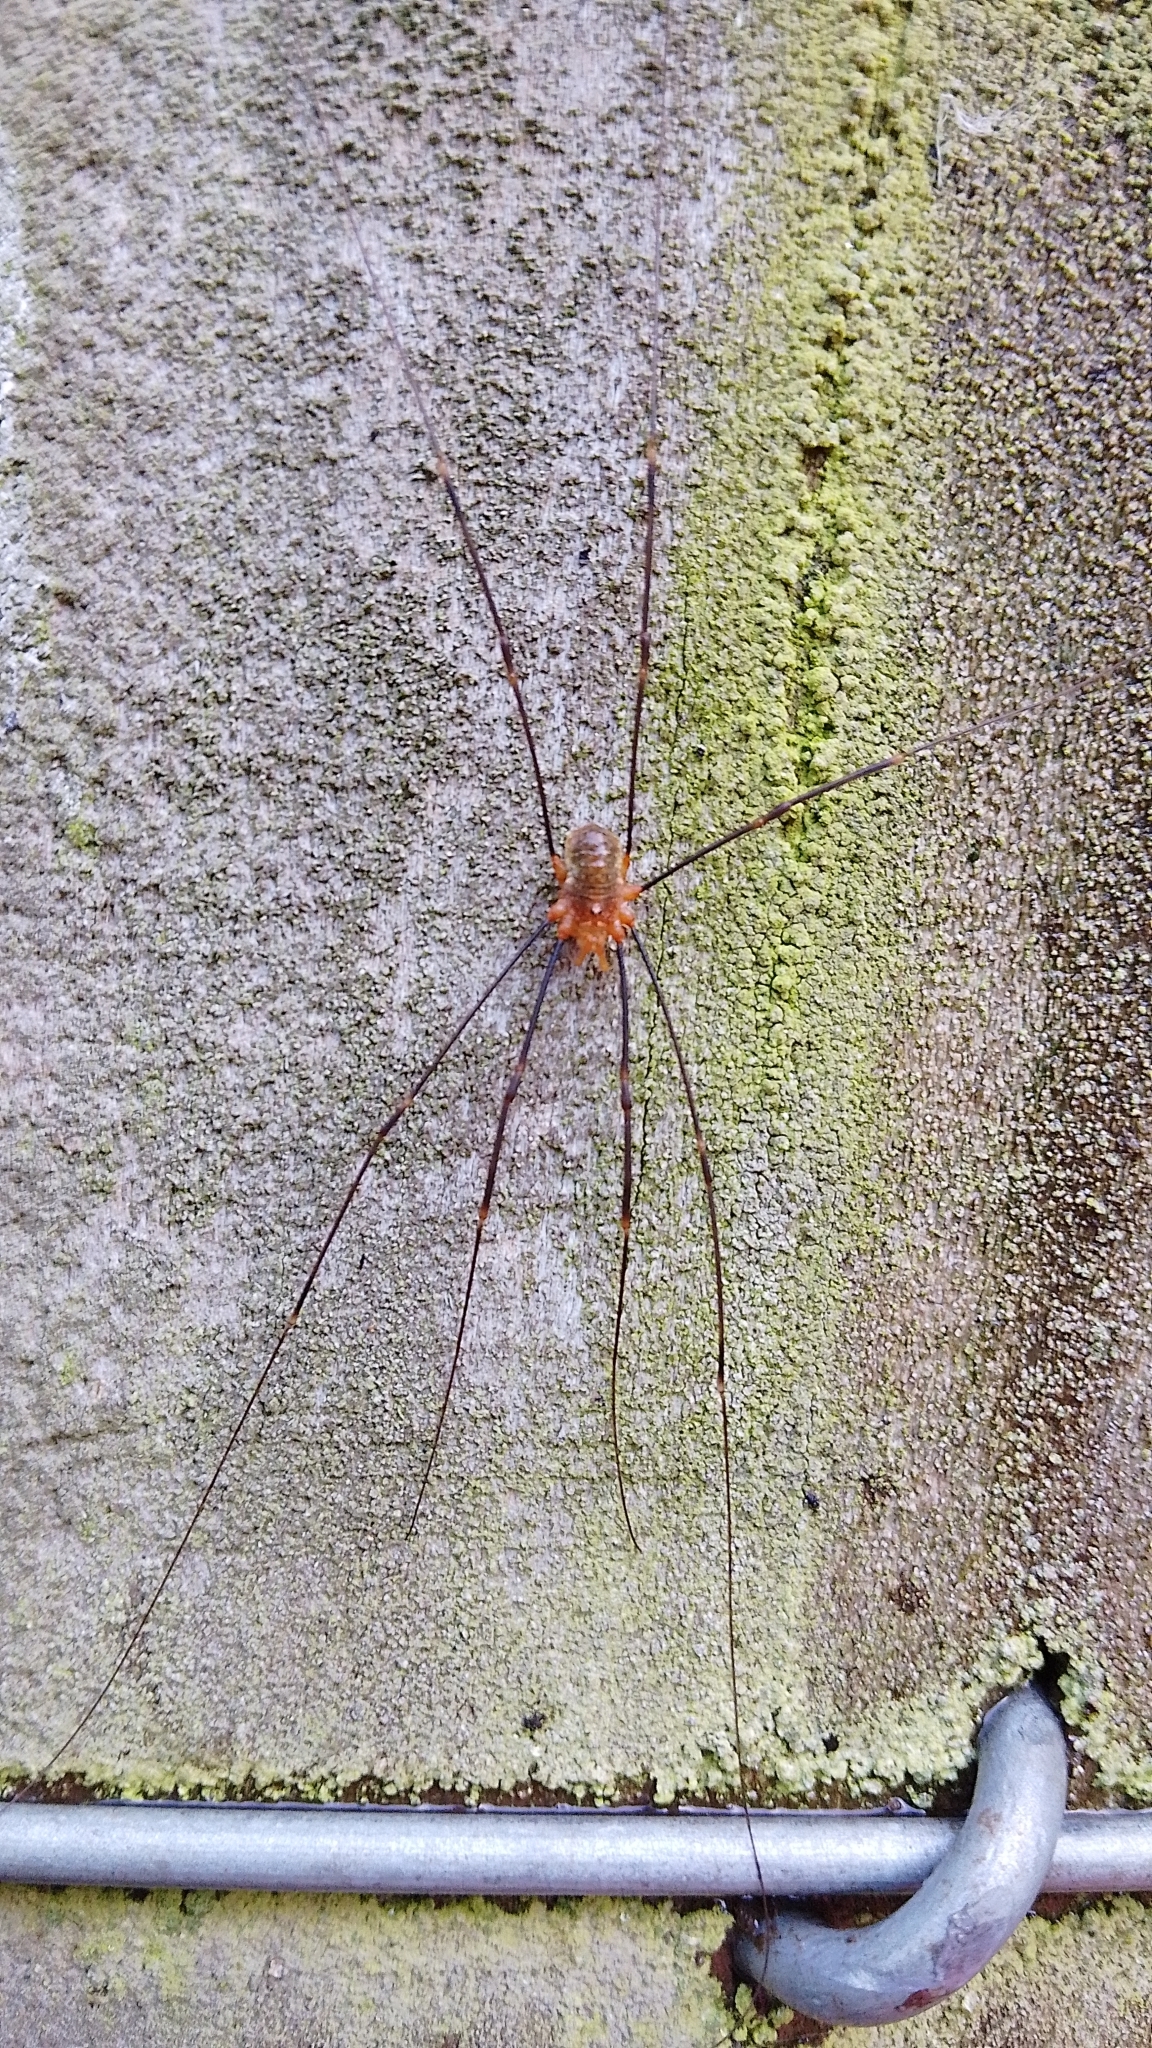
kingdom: Animalia
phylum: Arthropoda
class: Arachnida
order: Opiliones
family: Phalangiidae
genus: Opilio
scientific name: Opilio canestrinii
